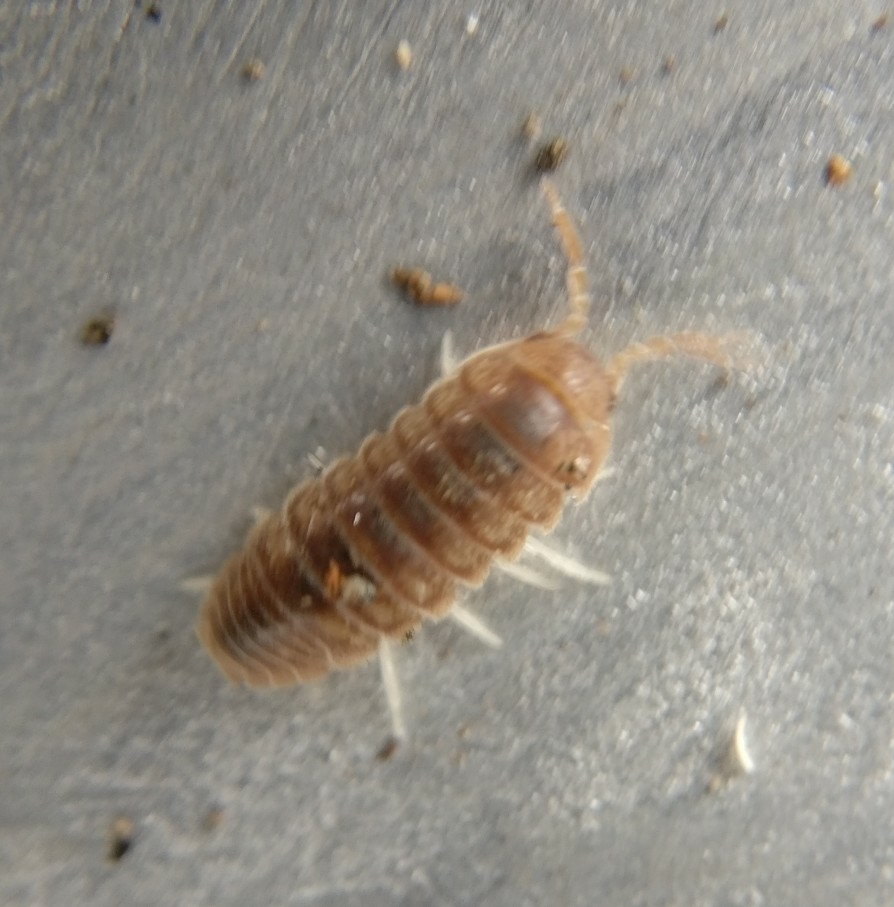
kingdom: Animalia
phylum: Arthropoda
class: Malacostraca
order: Isopoda
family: Armadillidiidae
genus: Eluma
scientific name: Eluma caelata
